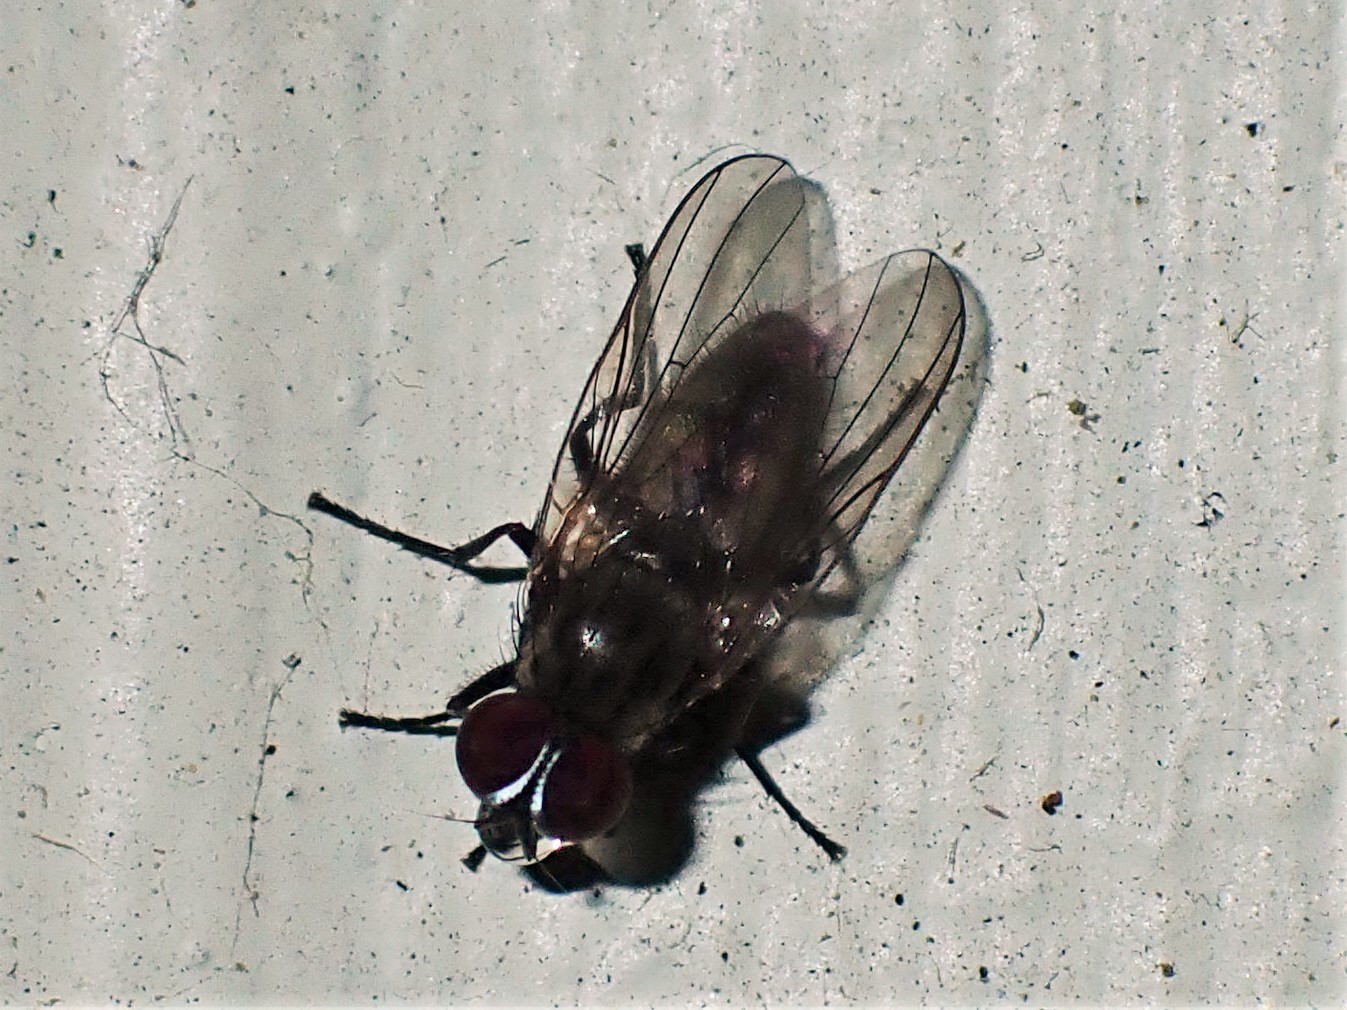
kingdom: Animalia
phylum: Arthropoda
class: Insecta
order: Diptera
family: Fanniidae
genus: Fannia
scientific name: Fannia canicularis
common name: Little house fly
